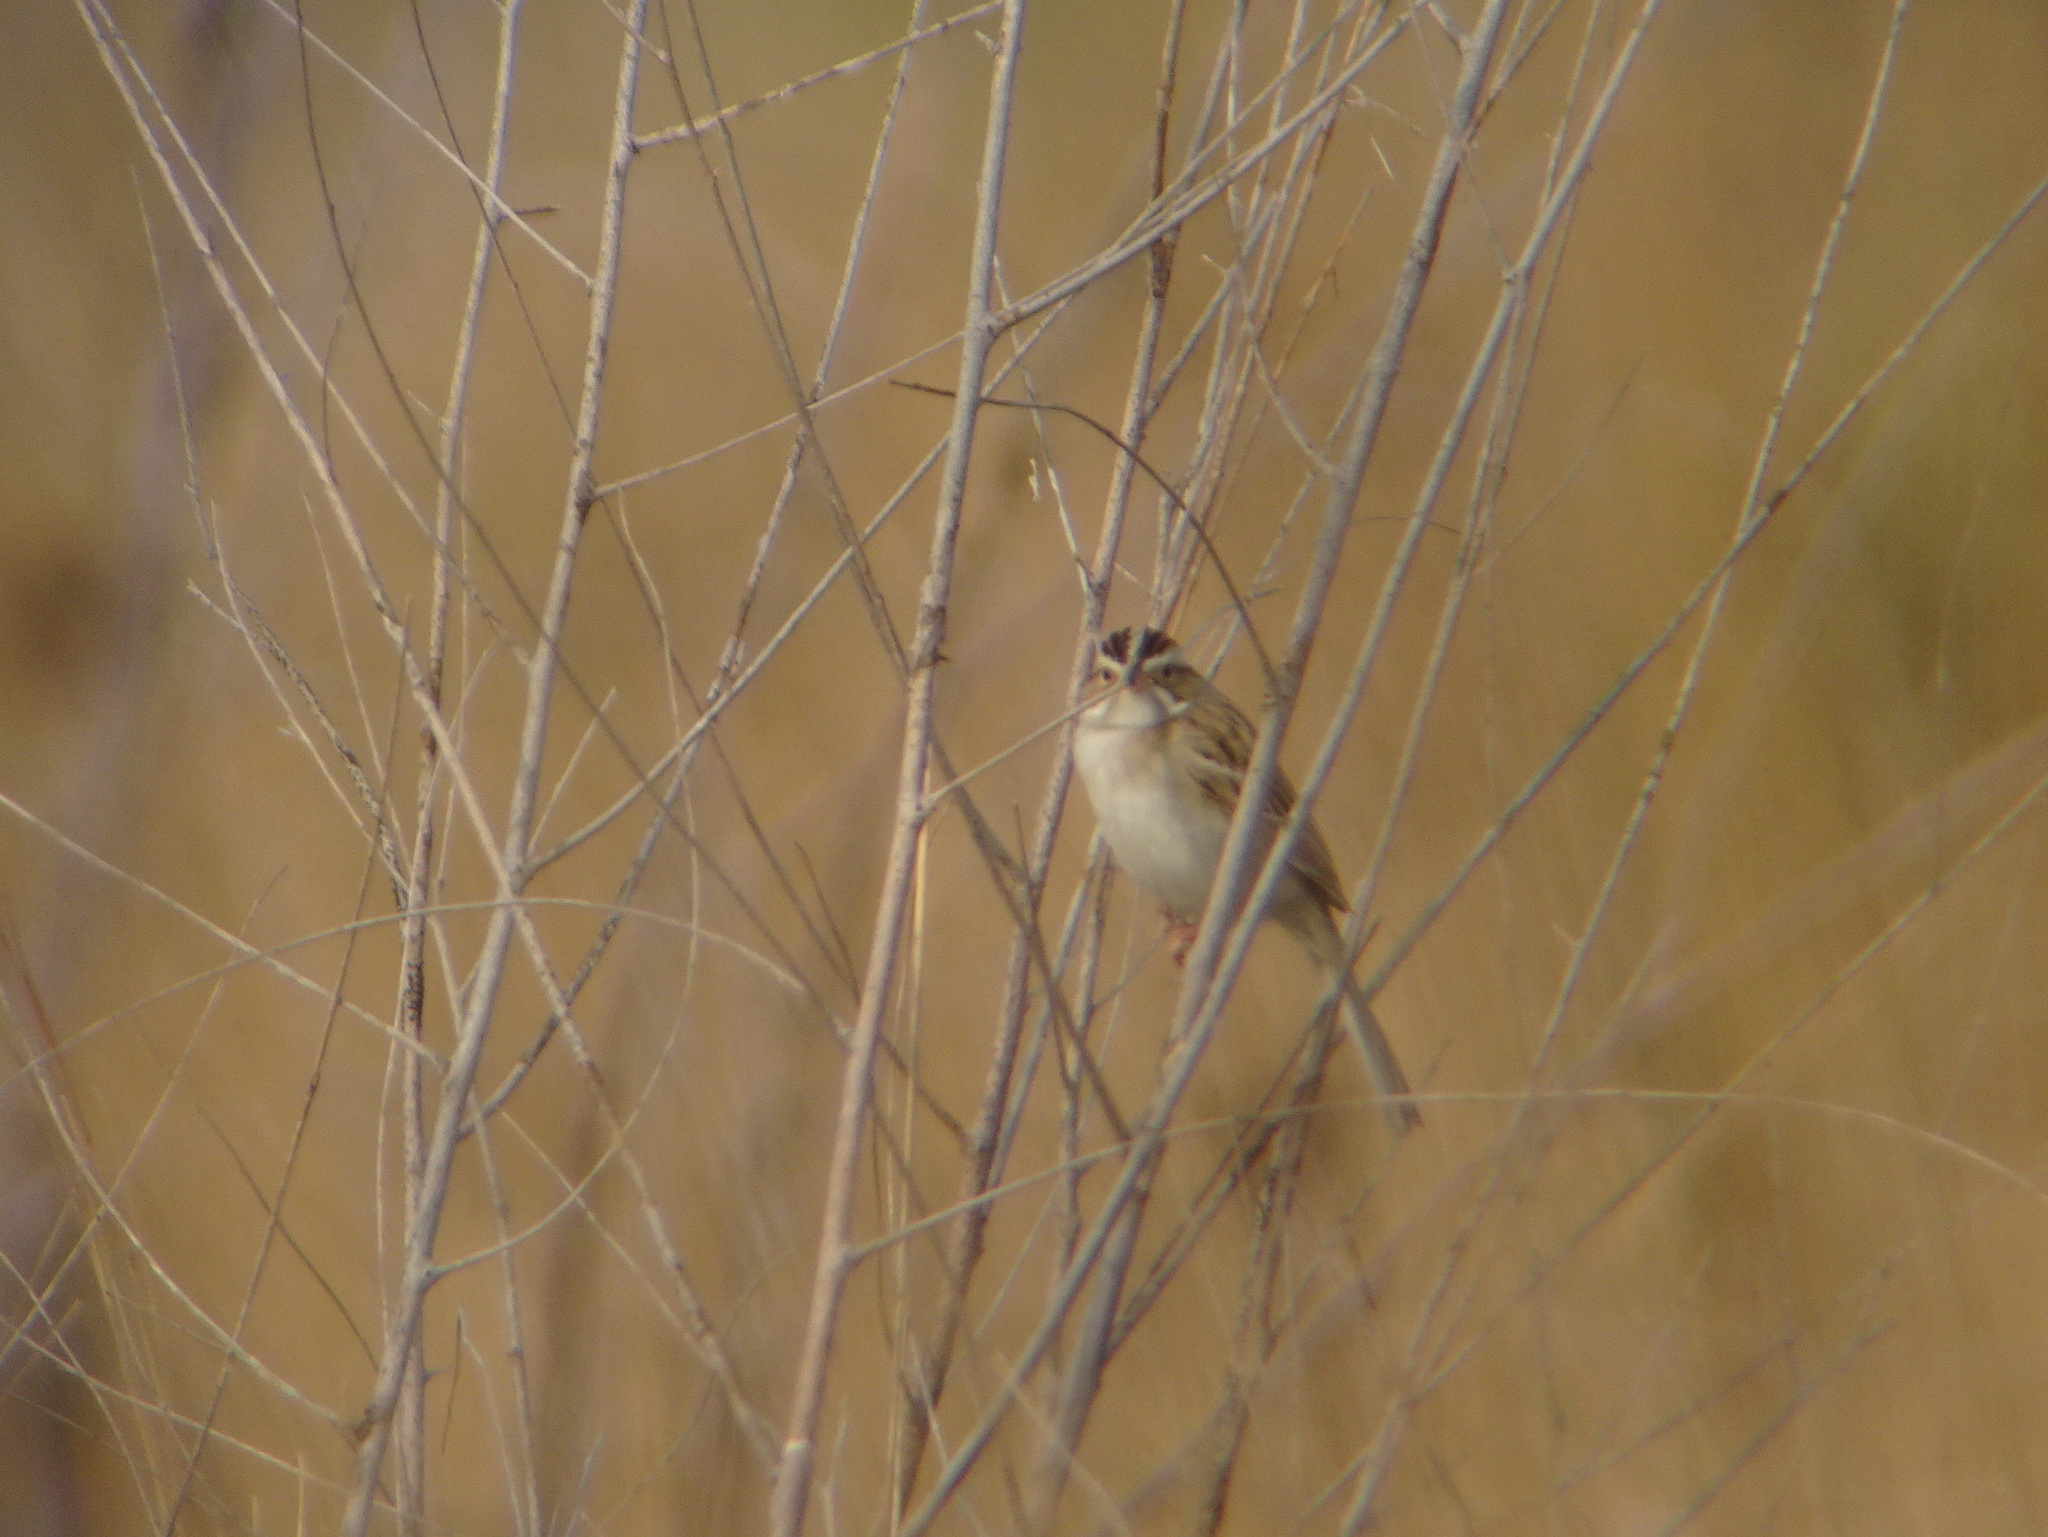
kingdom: Animalia
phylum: Chordata
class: Aves
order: Passeriformes
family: Passerellidae
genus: Spizella
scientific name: Spizella pallida
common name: Clay-colored sparrow
